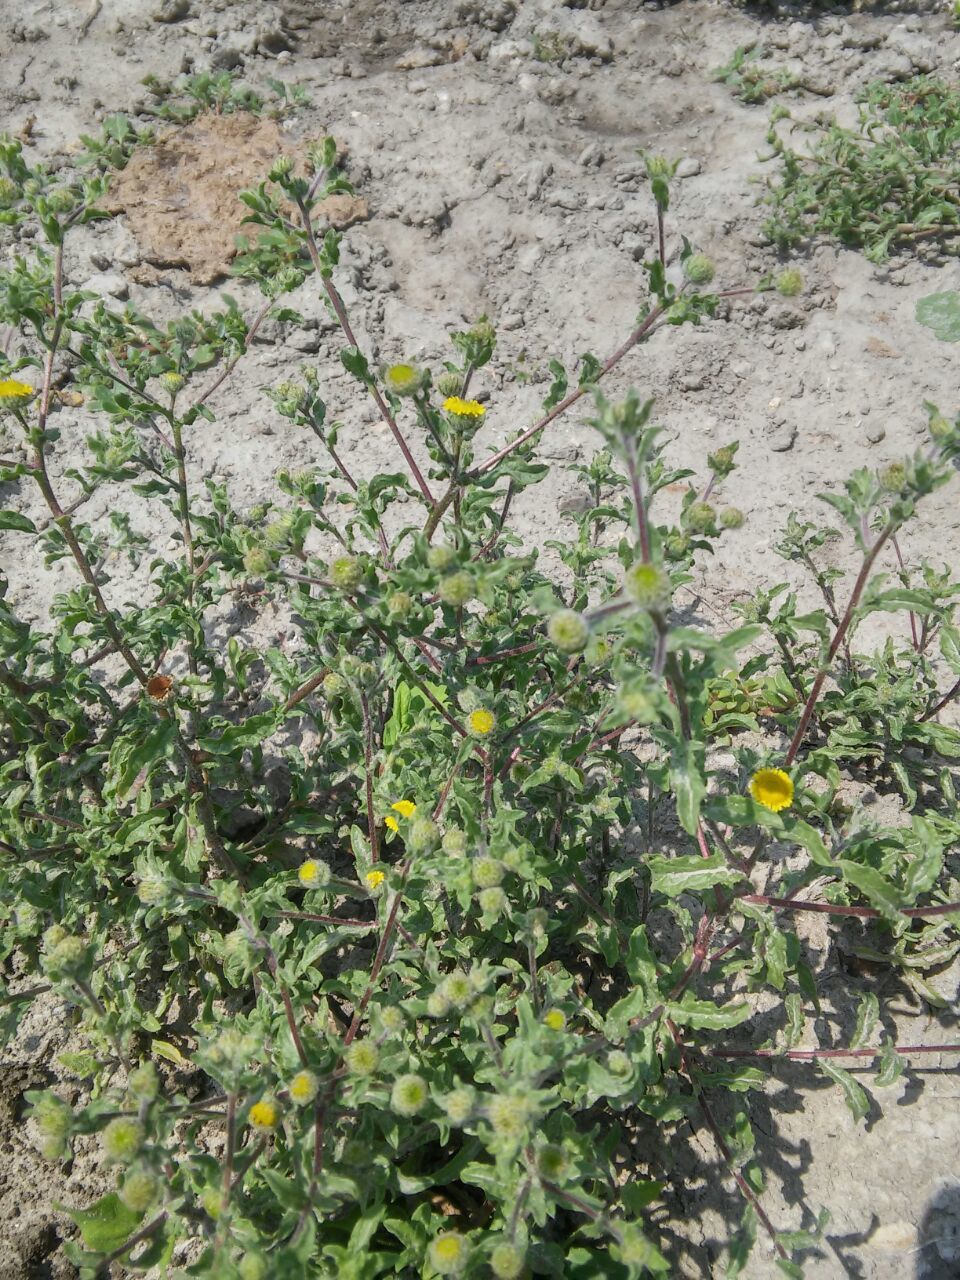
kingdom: Plantae
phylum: Tracheophyta
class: Magnoliopsida
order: Asterales
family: Asteraceae
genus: Pulicaria
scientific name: Pulicaria vulgaris
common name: Small fleabane
